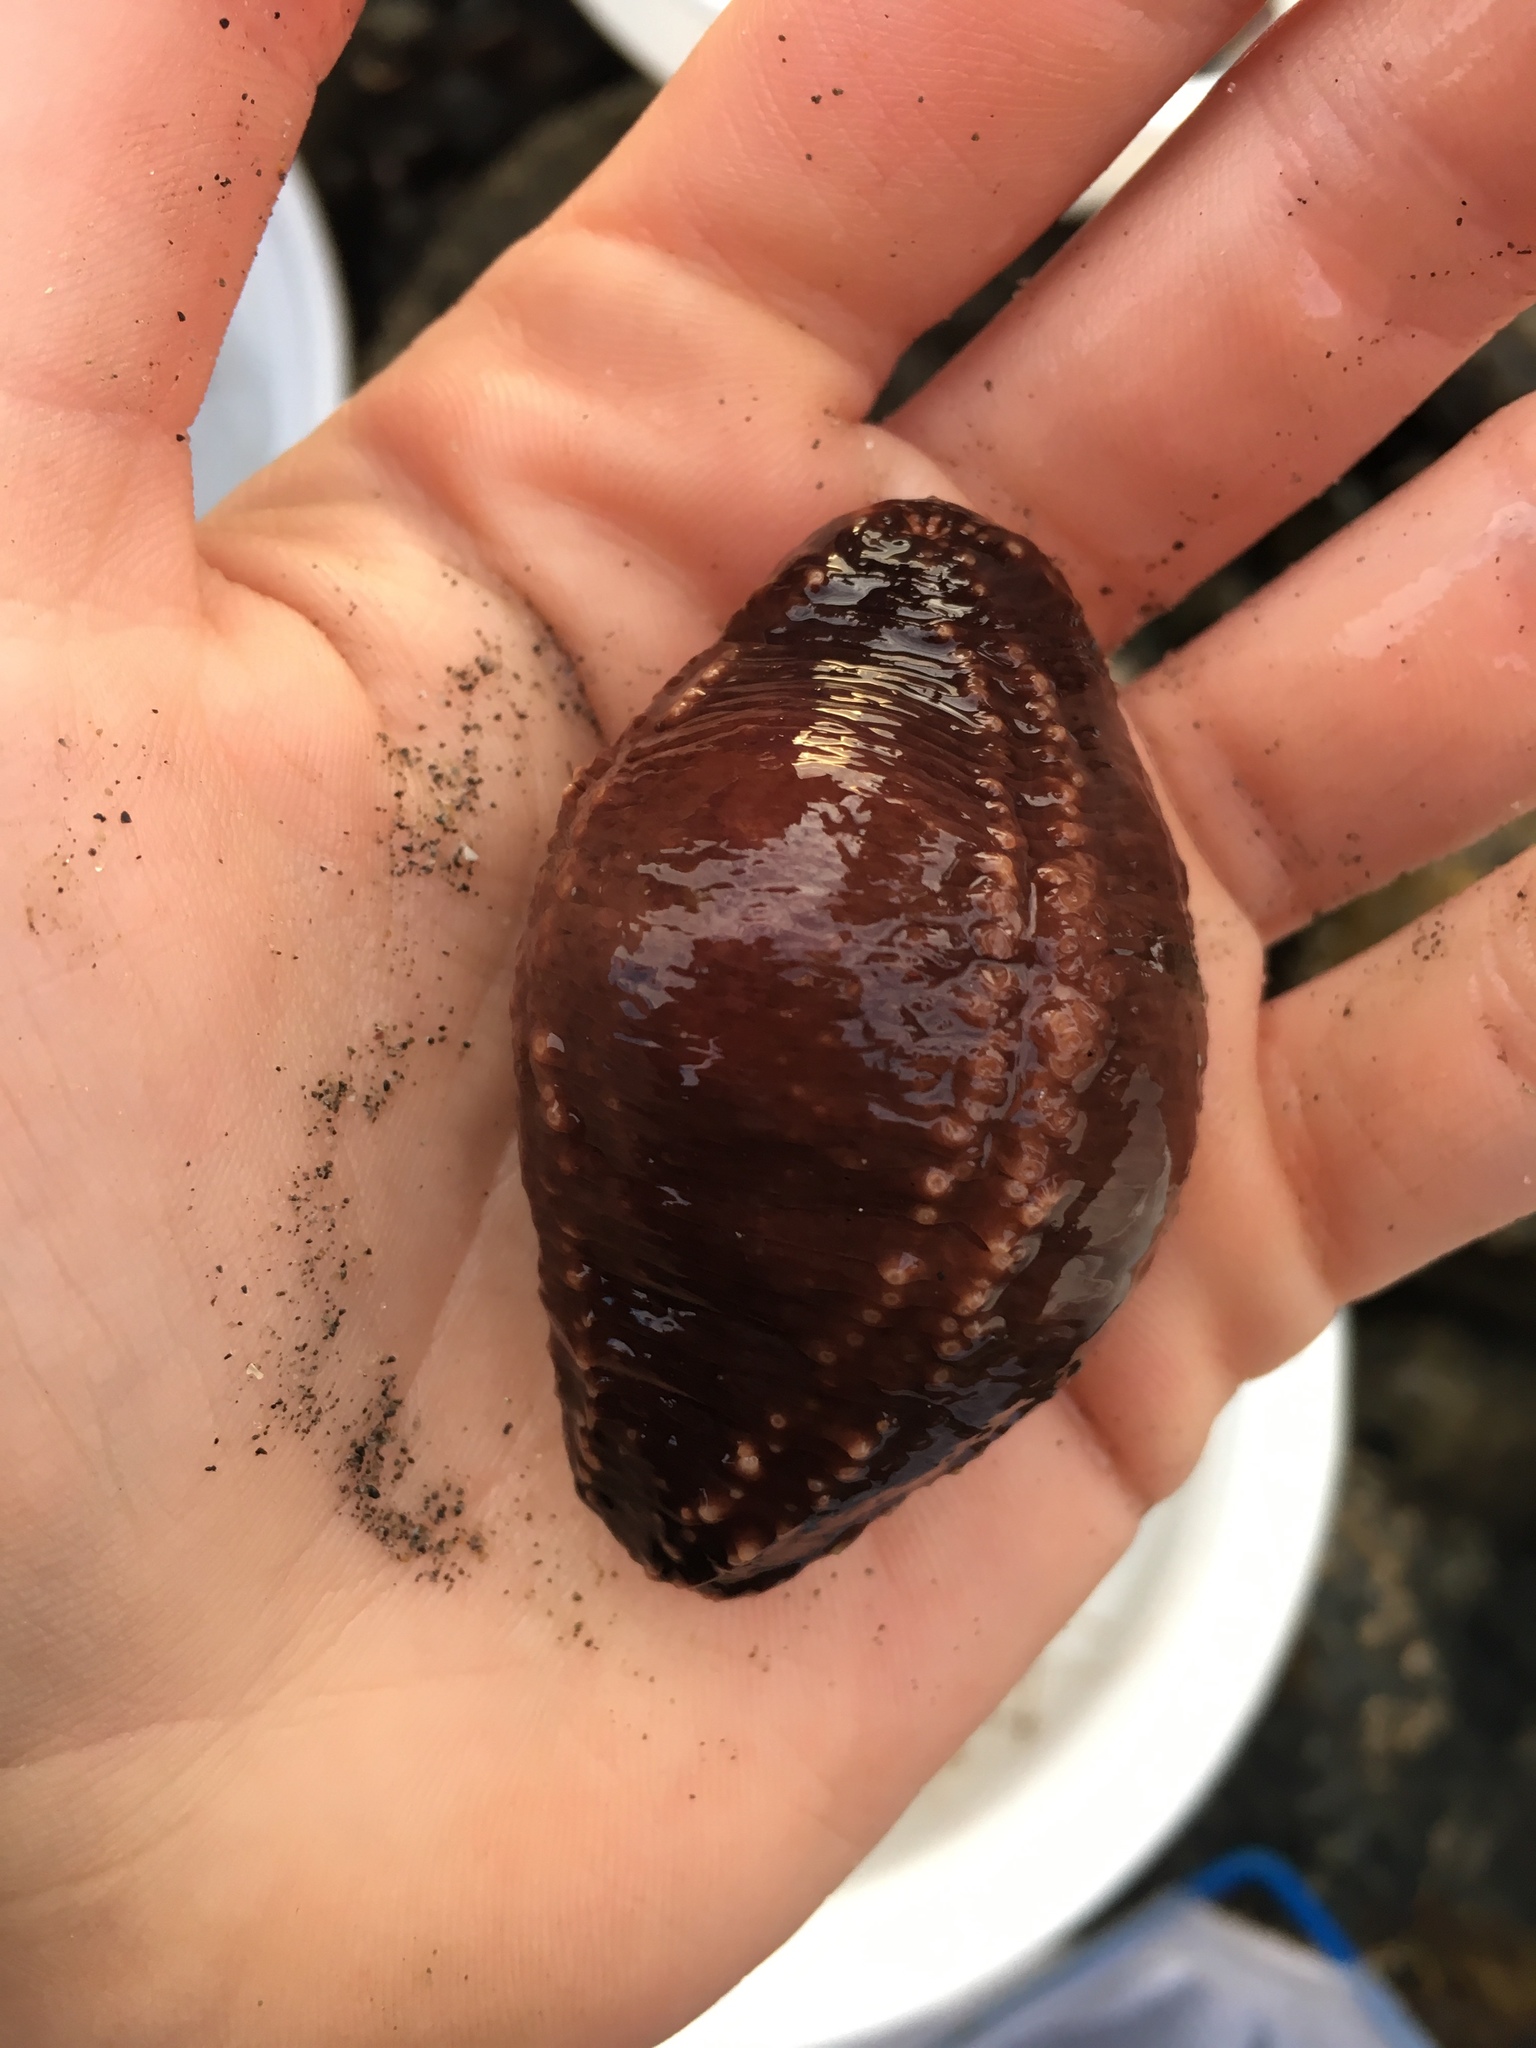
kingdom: Animalia
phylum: Echinodermata
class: Holothuroidea
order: Dendrochirotida
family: Cucumariidae
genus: Cucumaria
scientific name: Cucumaria miniata
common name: Orange sea cucumber
